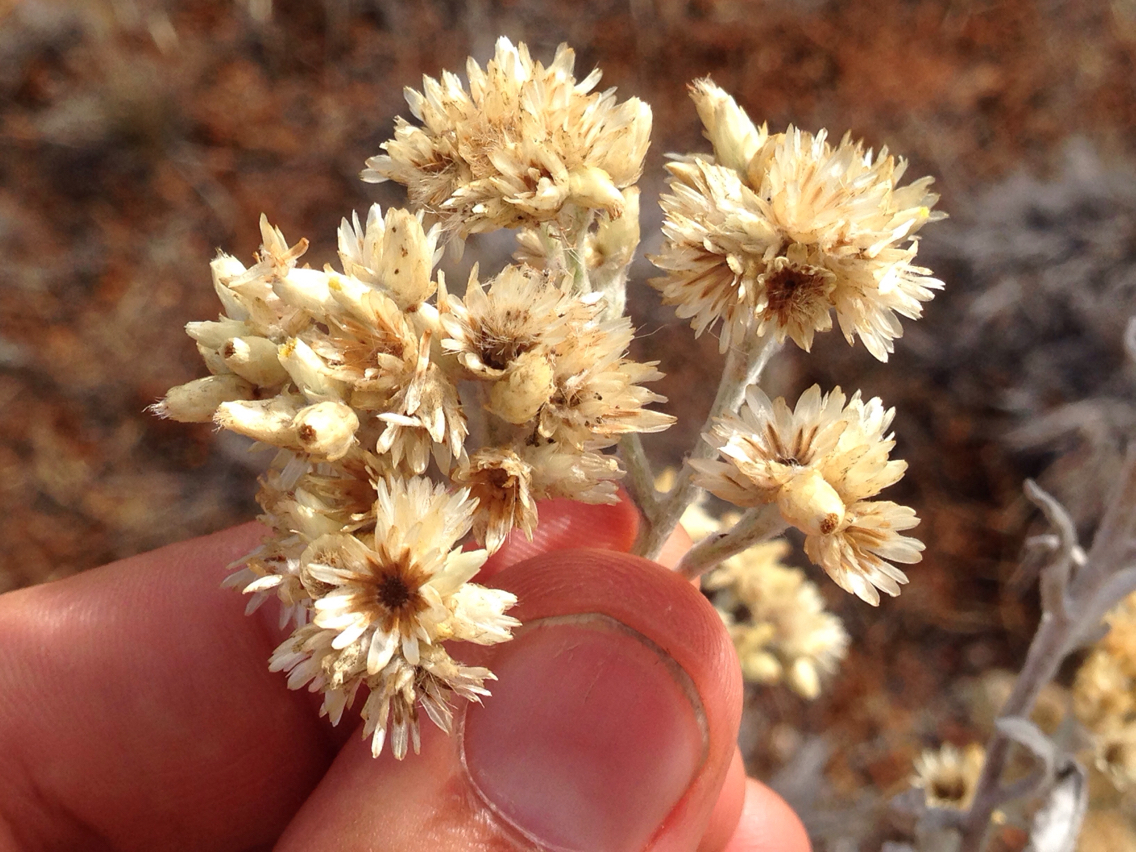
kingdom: Plantae
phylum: Tracheophyta
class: Magnoliopsida
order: Asterales
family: Asteraceae
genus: Pseudognaphalium
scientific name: Pseudognaphalium microcephalum
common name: San diego rabbit-tobacco
